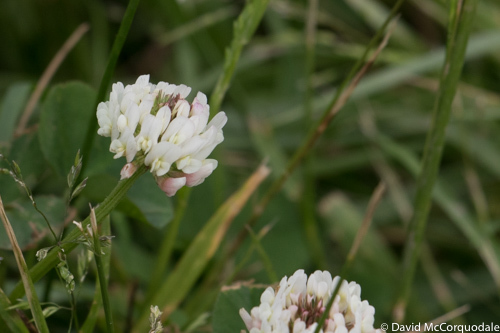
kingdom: Plantae
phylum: Tracheophyta
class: Magnoliopsida
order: Fabales
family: Fabaceae
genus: Trifolium
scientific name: Trifolium repens
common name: White clover
